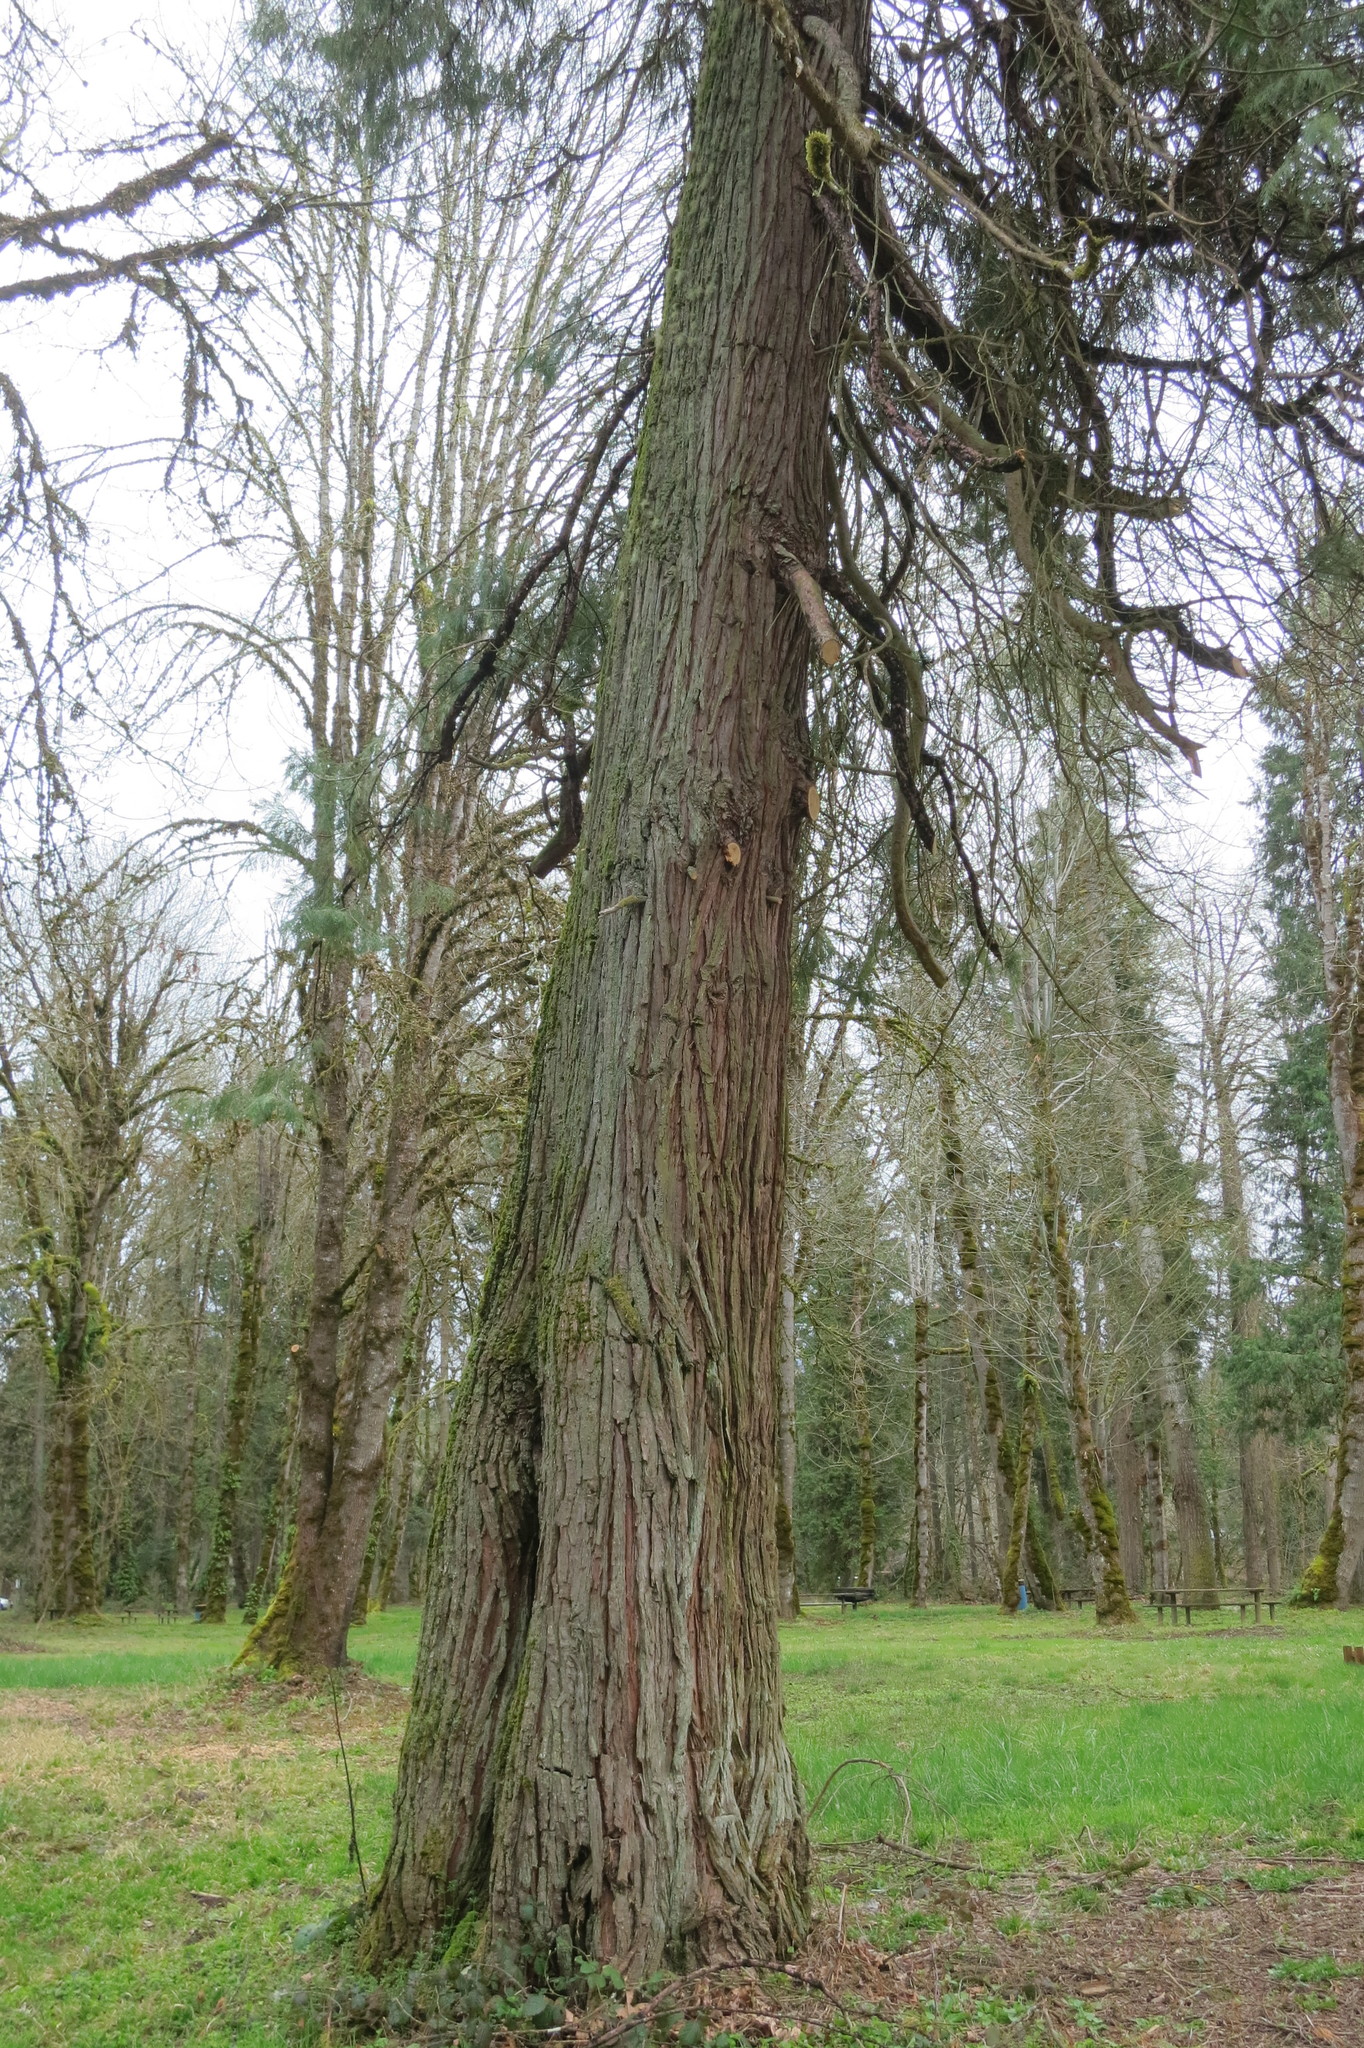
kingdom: Plantae
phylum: Tracheophyta
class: Pinopsida
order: Pinales
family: Cupressaceae
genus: Calocedrus
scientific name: Calocedrus decurrens
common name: Californian incense-cedar
